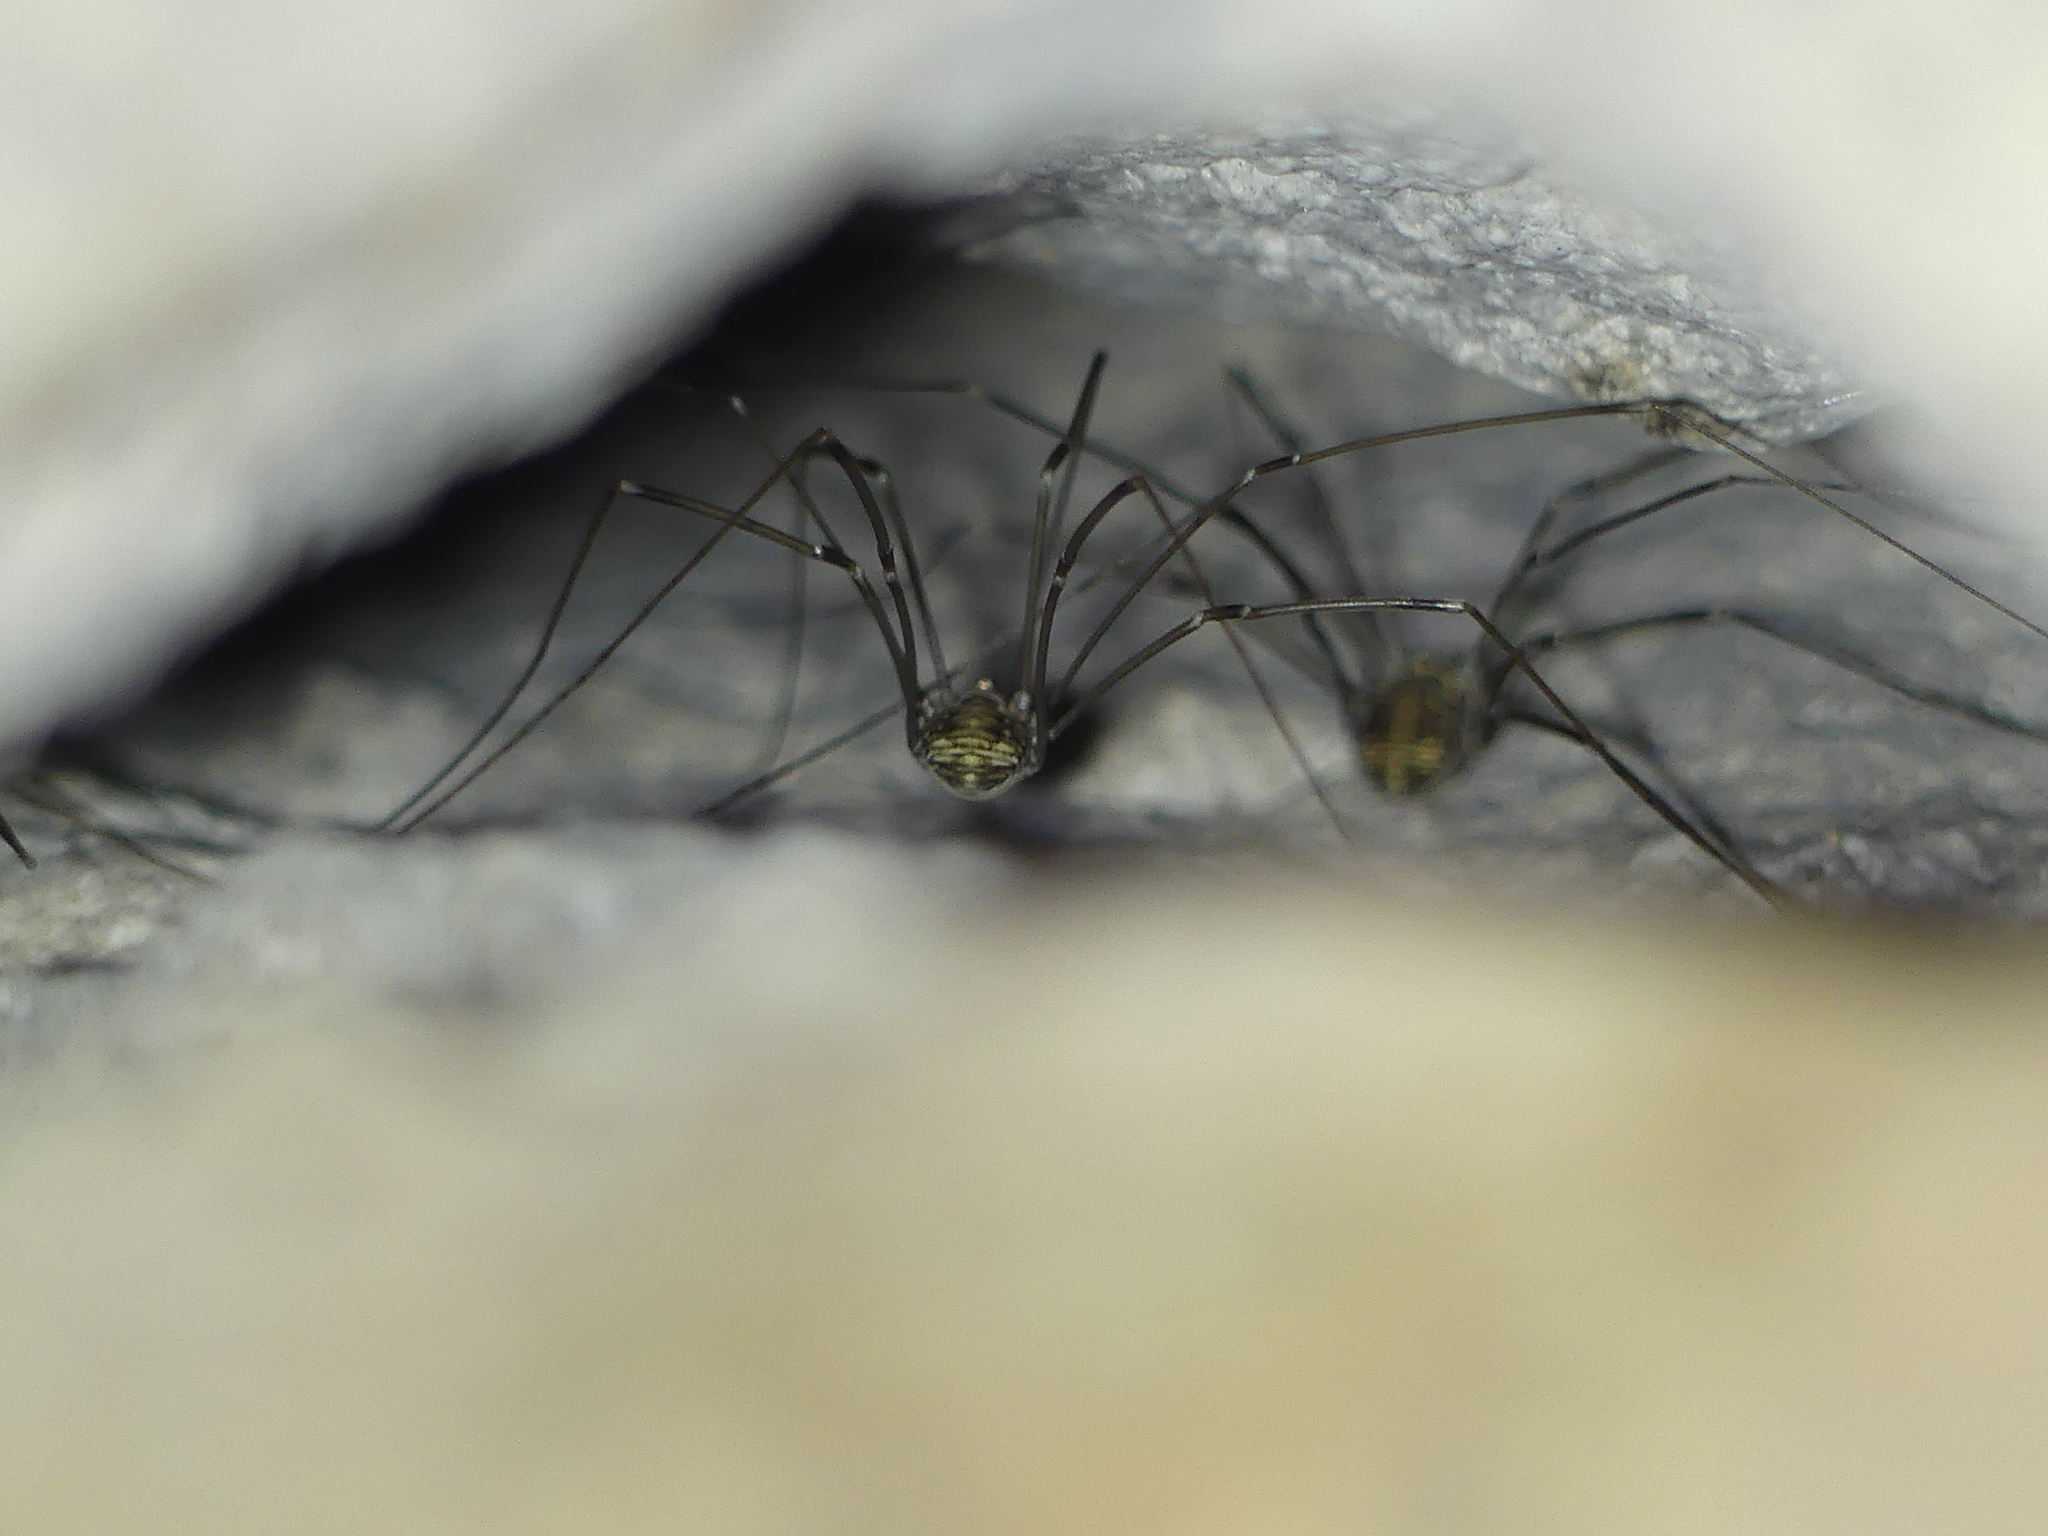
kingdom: Animalia
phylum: Arthropoda
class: Arachnida
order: Opiliones
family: Sclerosomatidae
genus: Leiobunum
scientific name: Leiobunum limbatum
